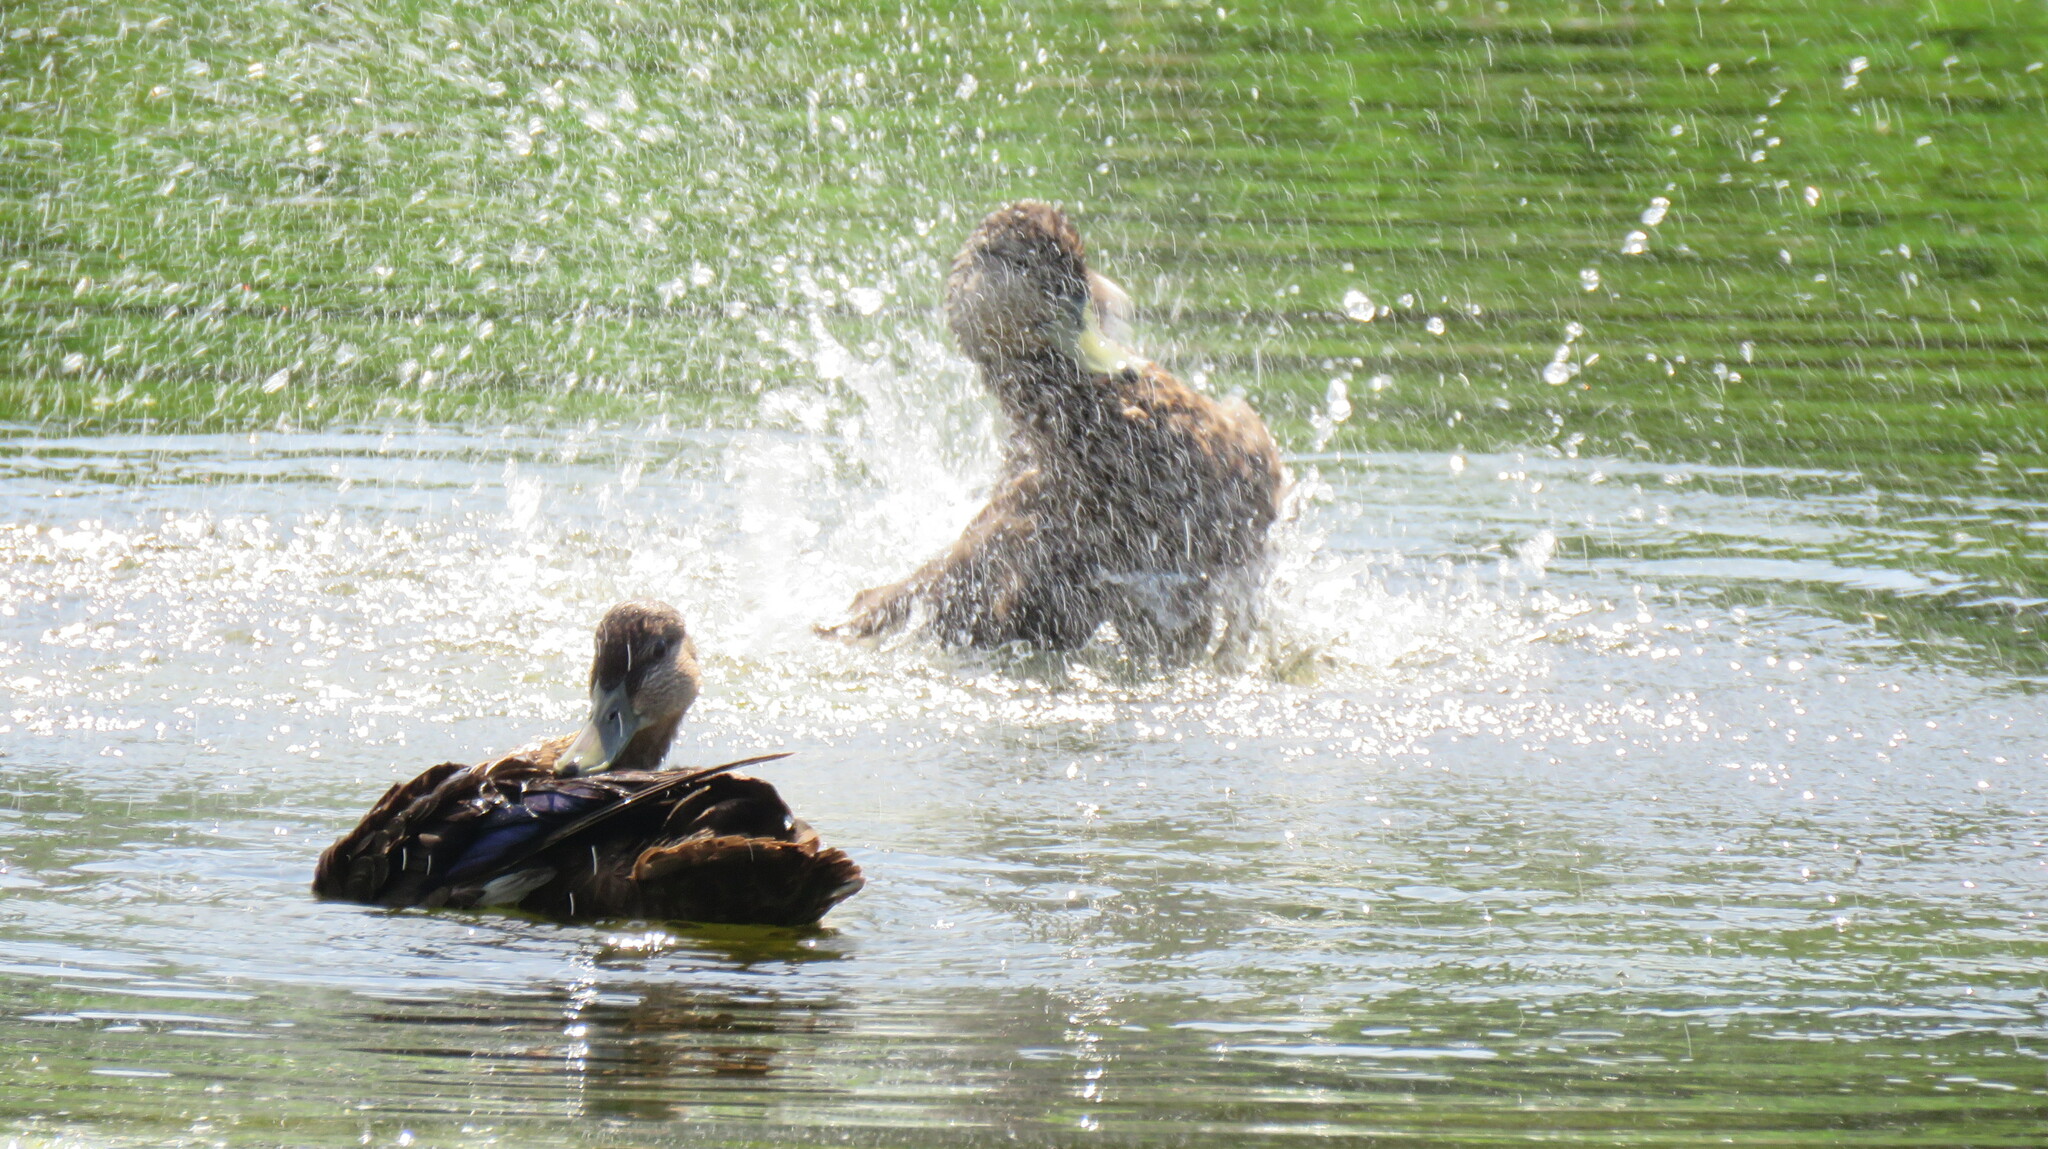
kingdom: Animalia
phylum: Chordata
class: Aves
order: Anseriformes
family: Anatidae
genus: Anas
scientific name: Anas rubripes
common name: American black duck
